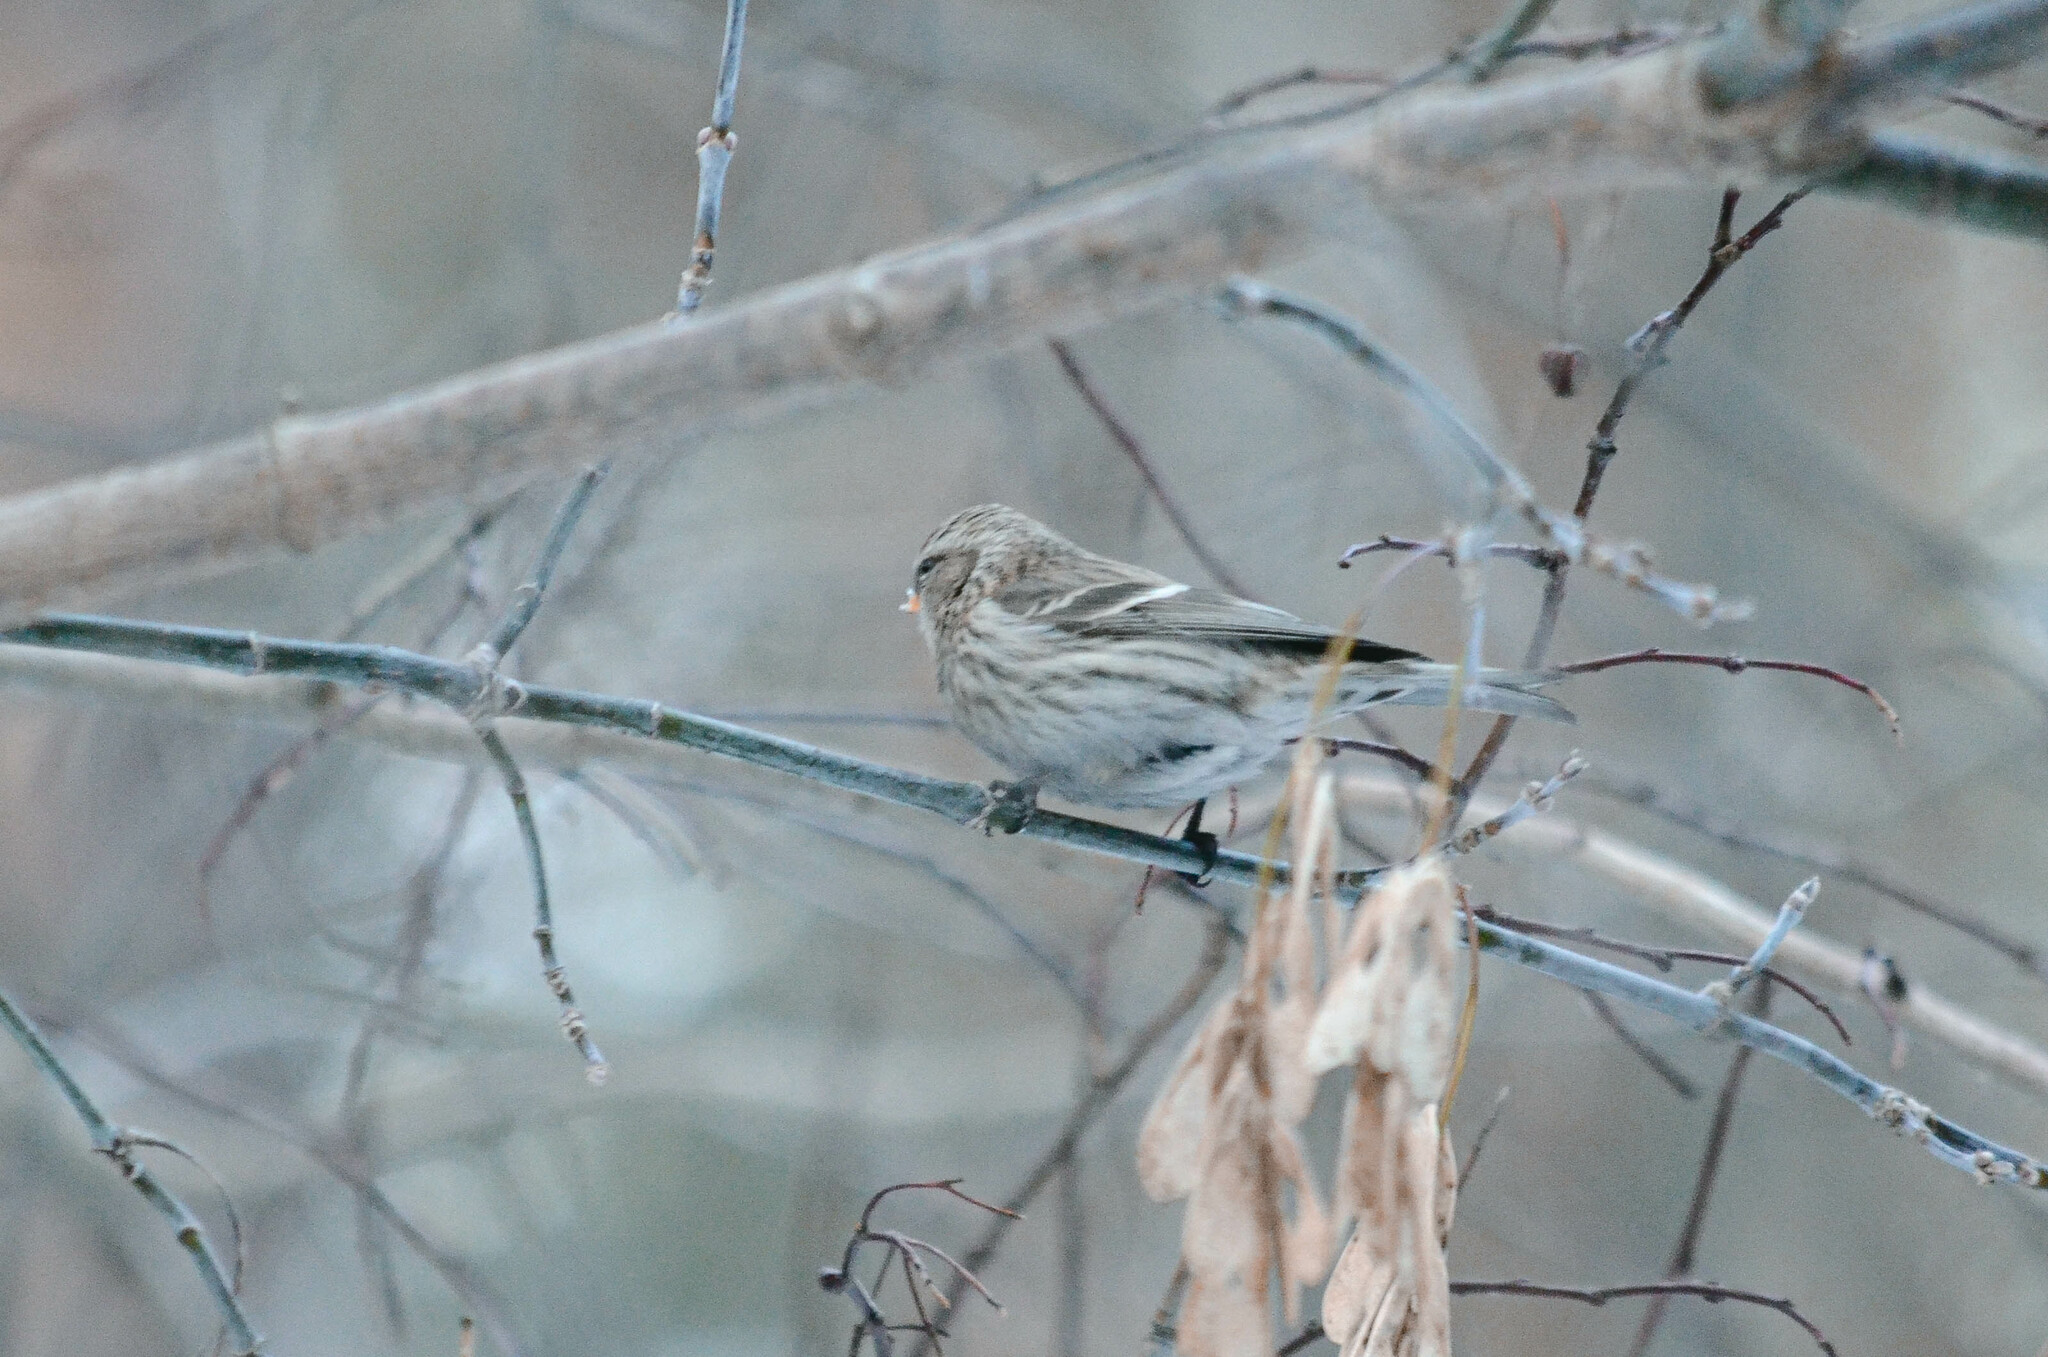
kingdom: Animalia
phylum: Chordata
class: Aves
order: Passeriformes
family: Fringillidae
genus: Acanthis
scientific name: Acanthis flammea
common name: Common redpoll
